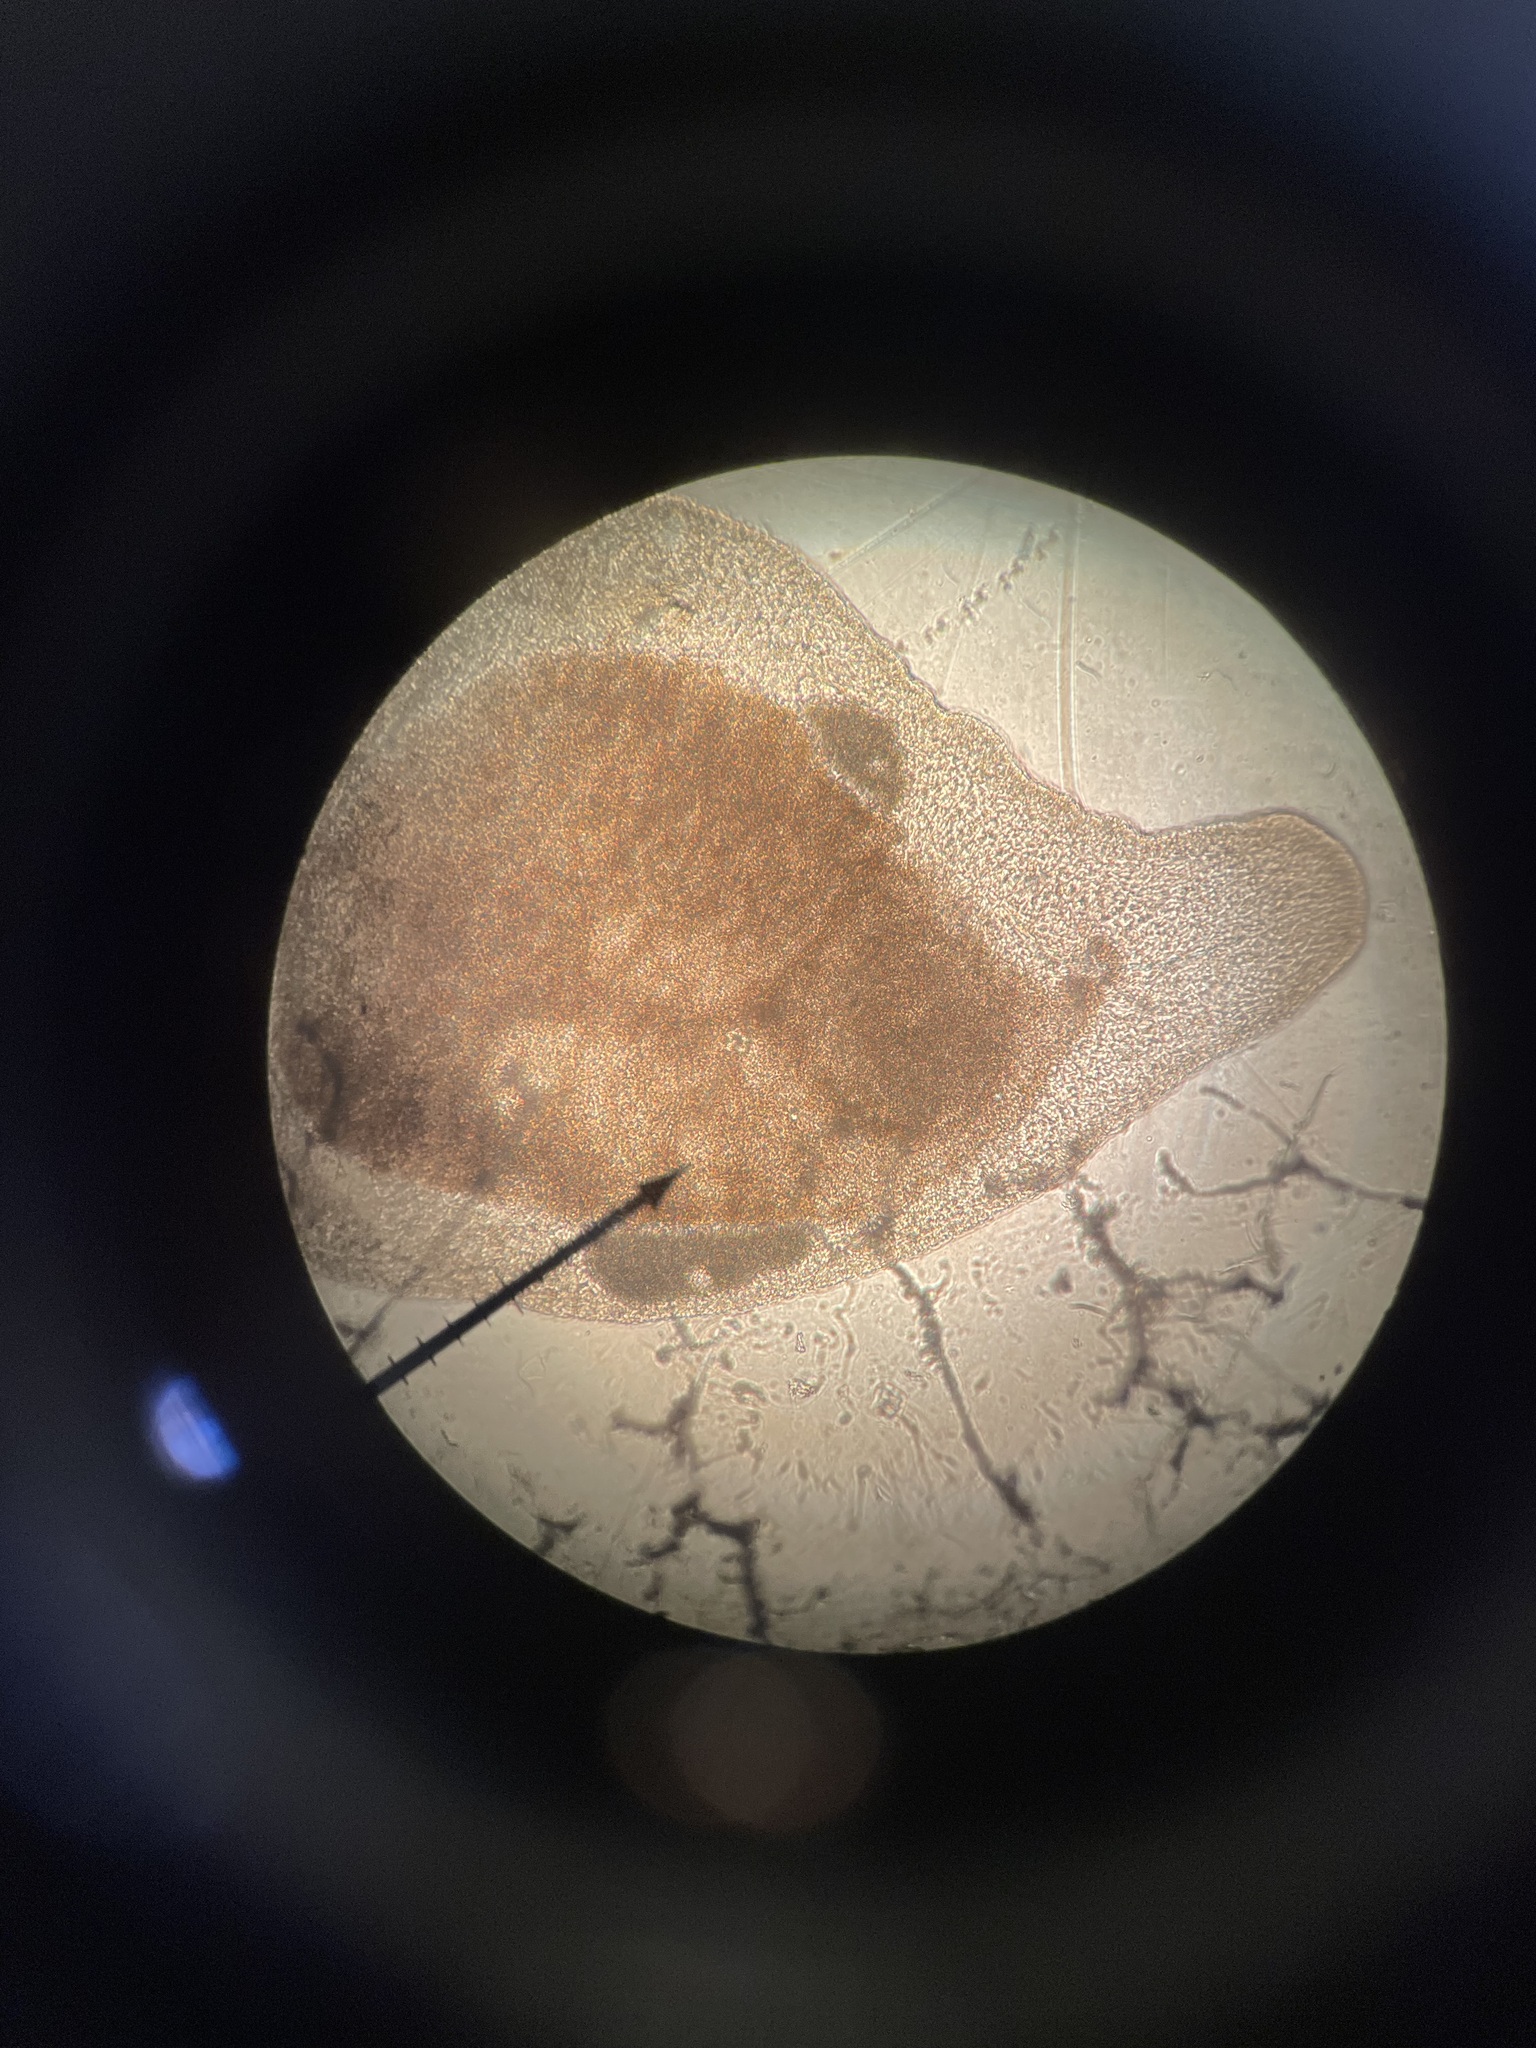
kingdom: Animalia
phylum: Platyhelminthes
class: Turbellaria
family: Macrostomidae
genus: Macrostomum
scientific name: Macrostomum tuba
